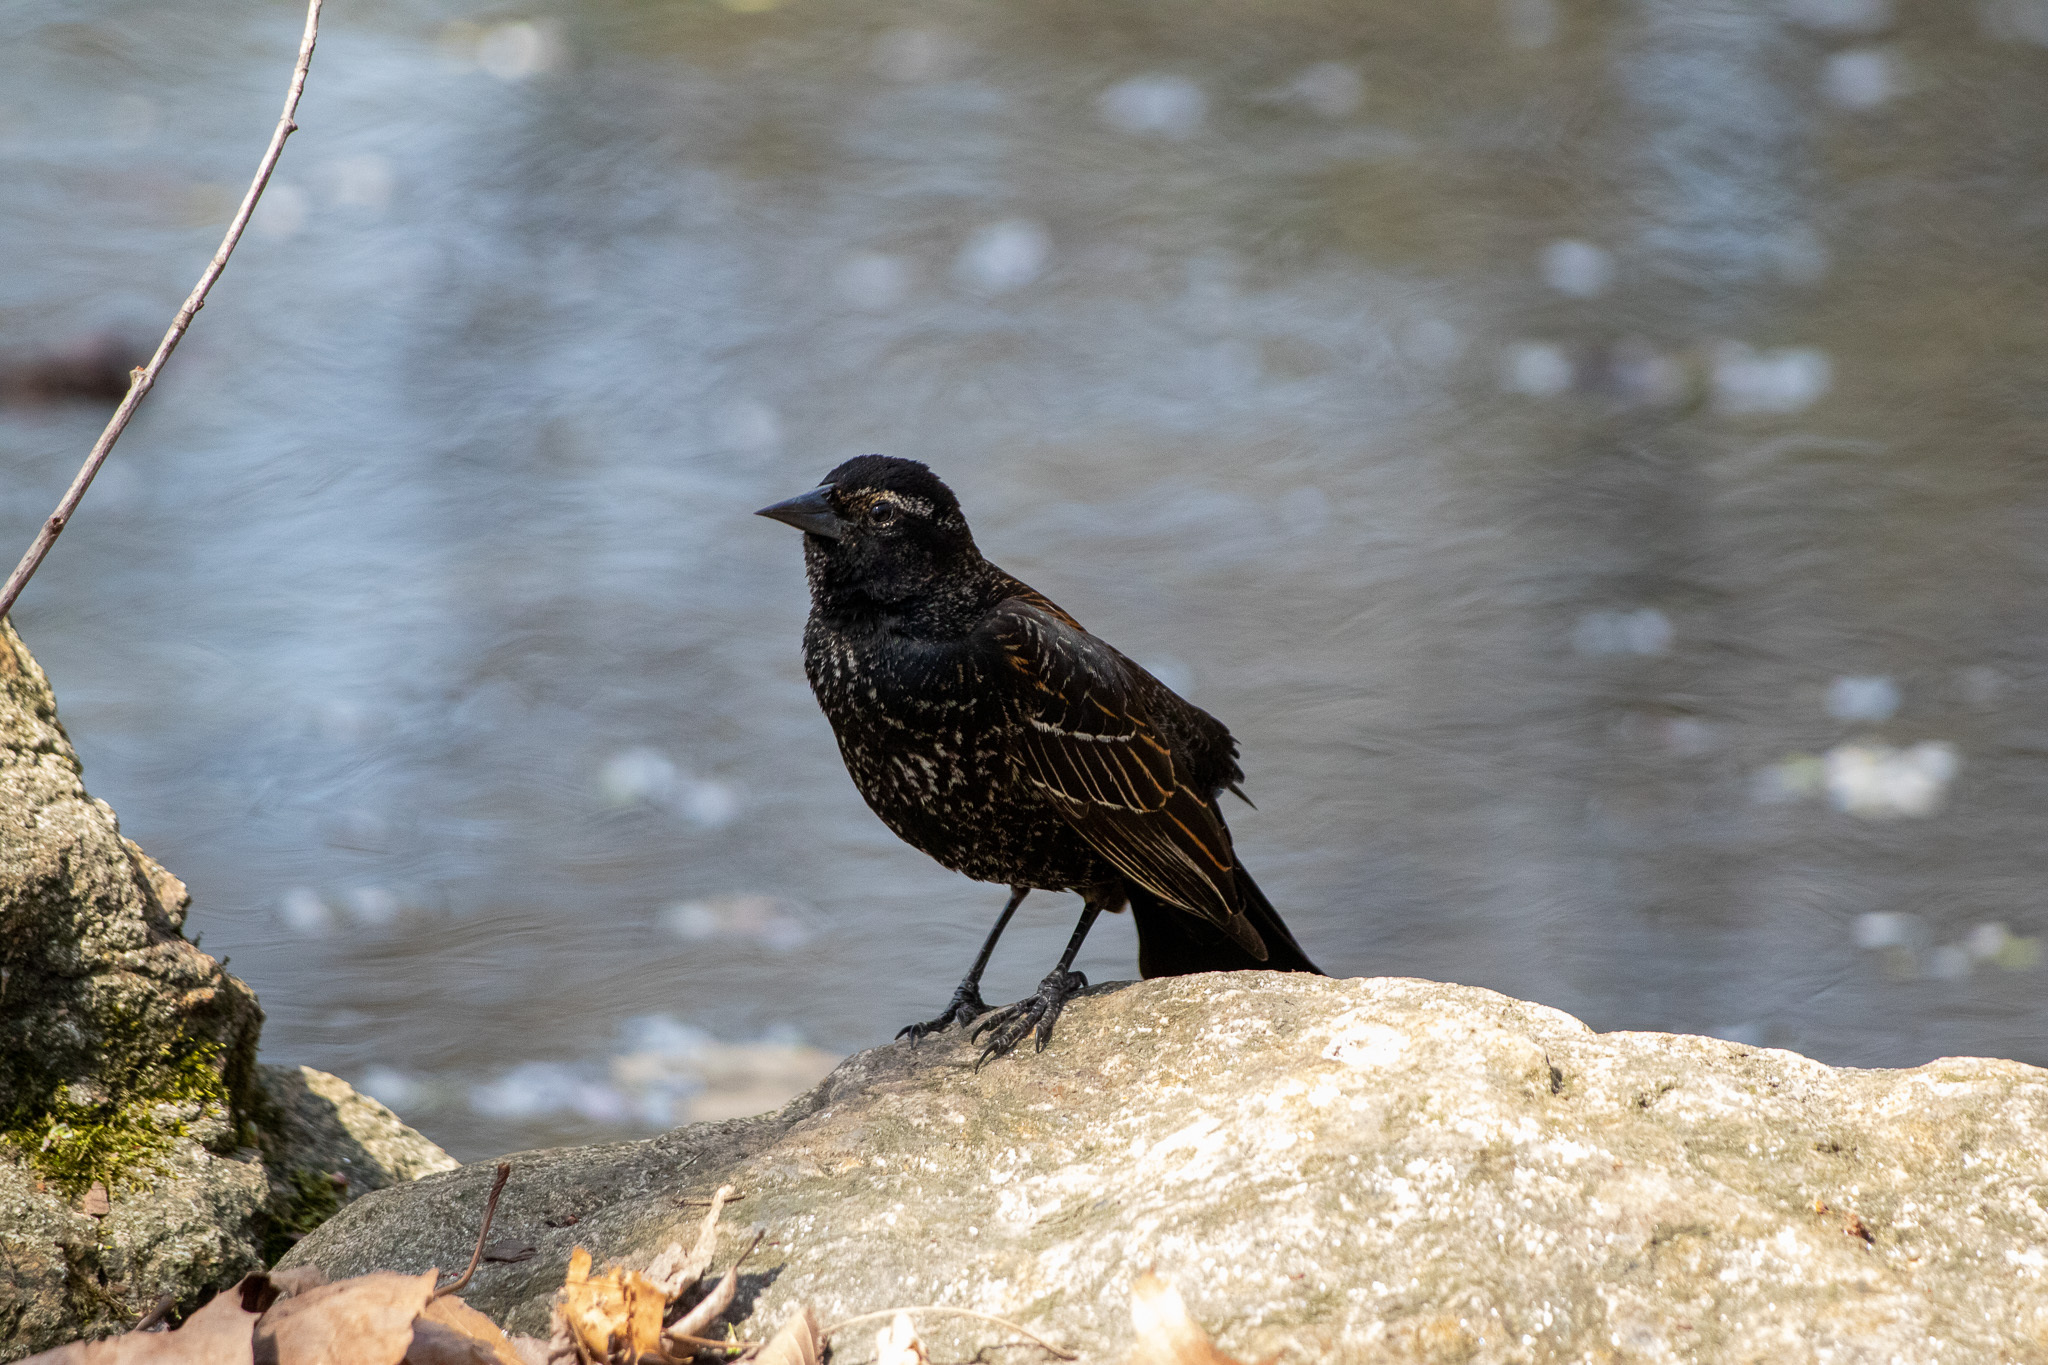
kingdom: Animalia
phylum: Chordata
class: Aves
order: Passeriformes
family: Icteridae
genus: Agelaius
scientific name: Agelaius phoeniceus
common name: Red-winged blackbird
